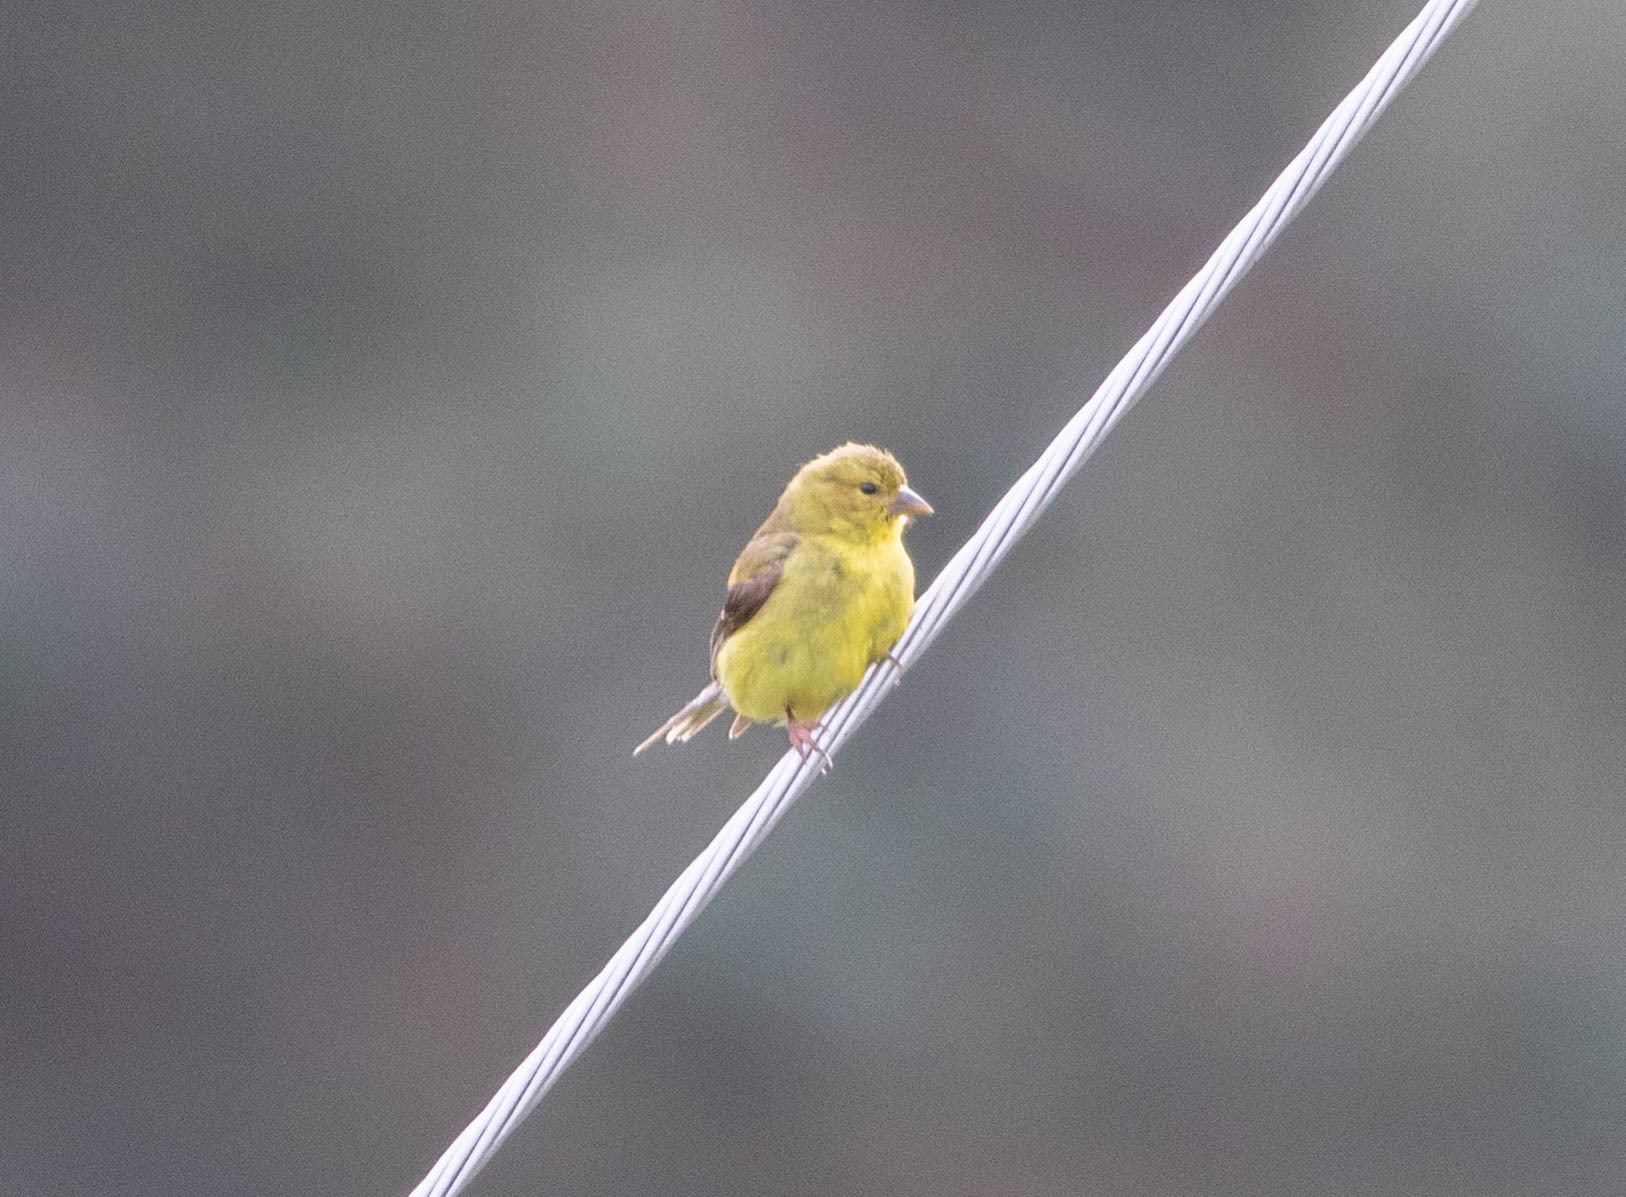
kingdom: Animalia
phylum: Chordata
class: Aves
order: Passeriformes
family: Fringillidae
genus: Spinus
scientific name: Spinus tristis
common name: American goldfinch
